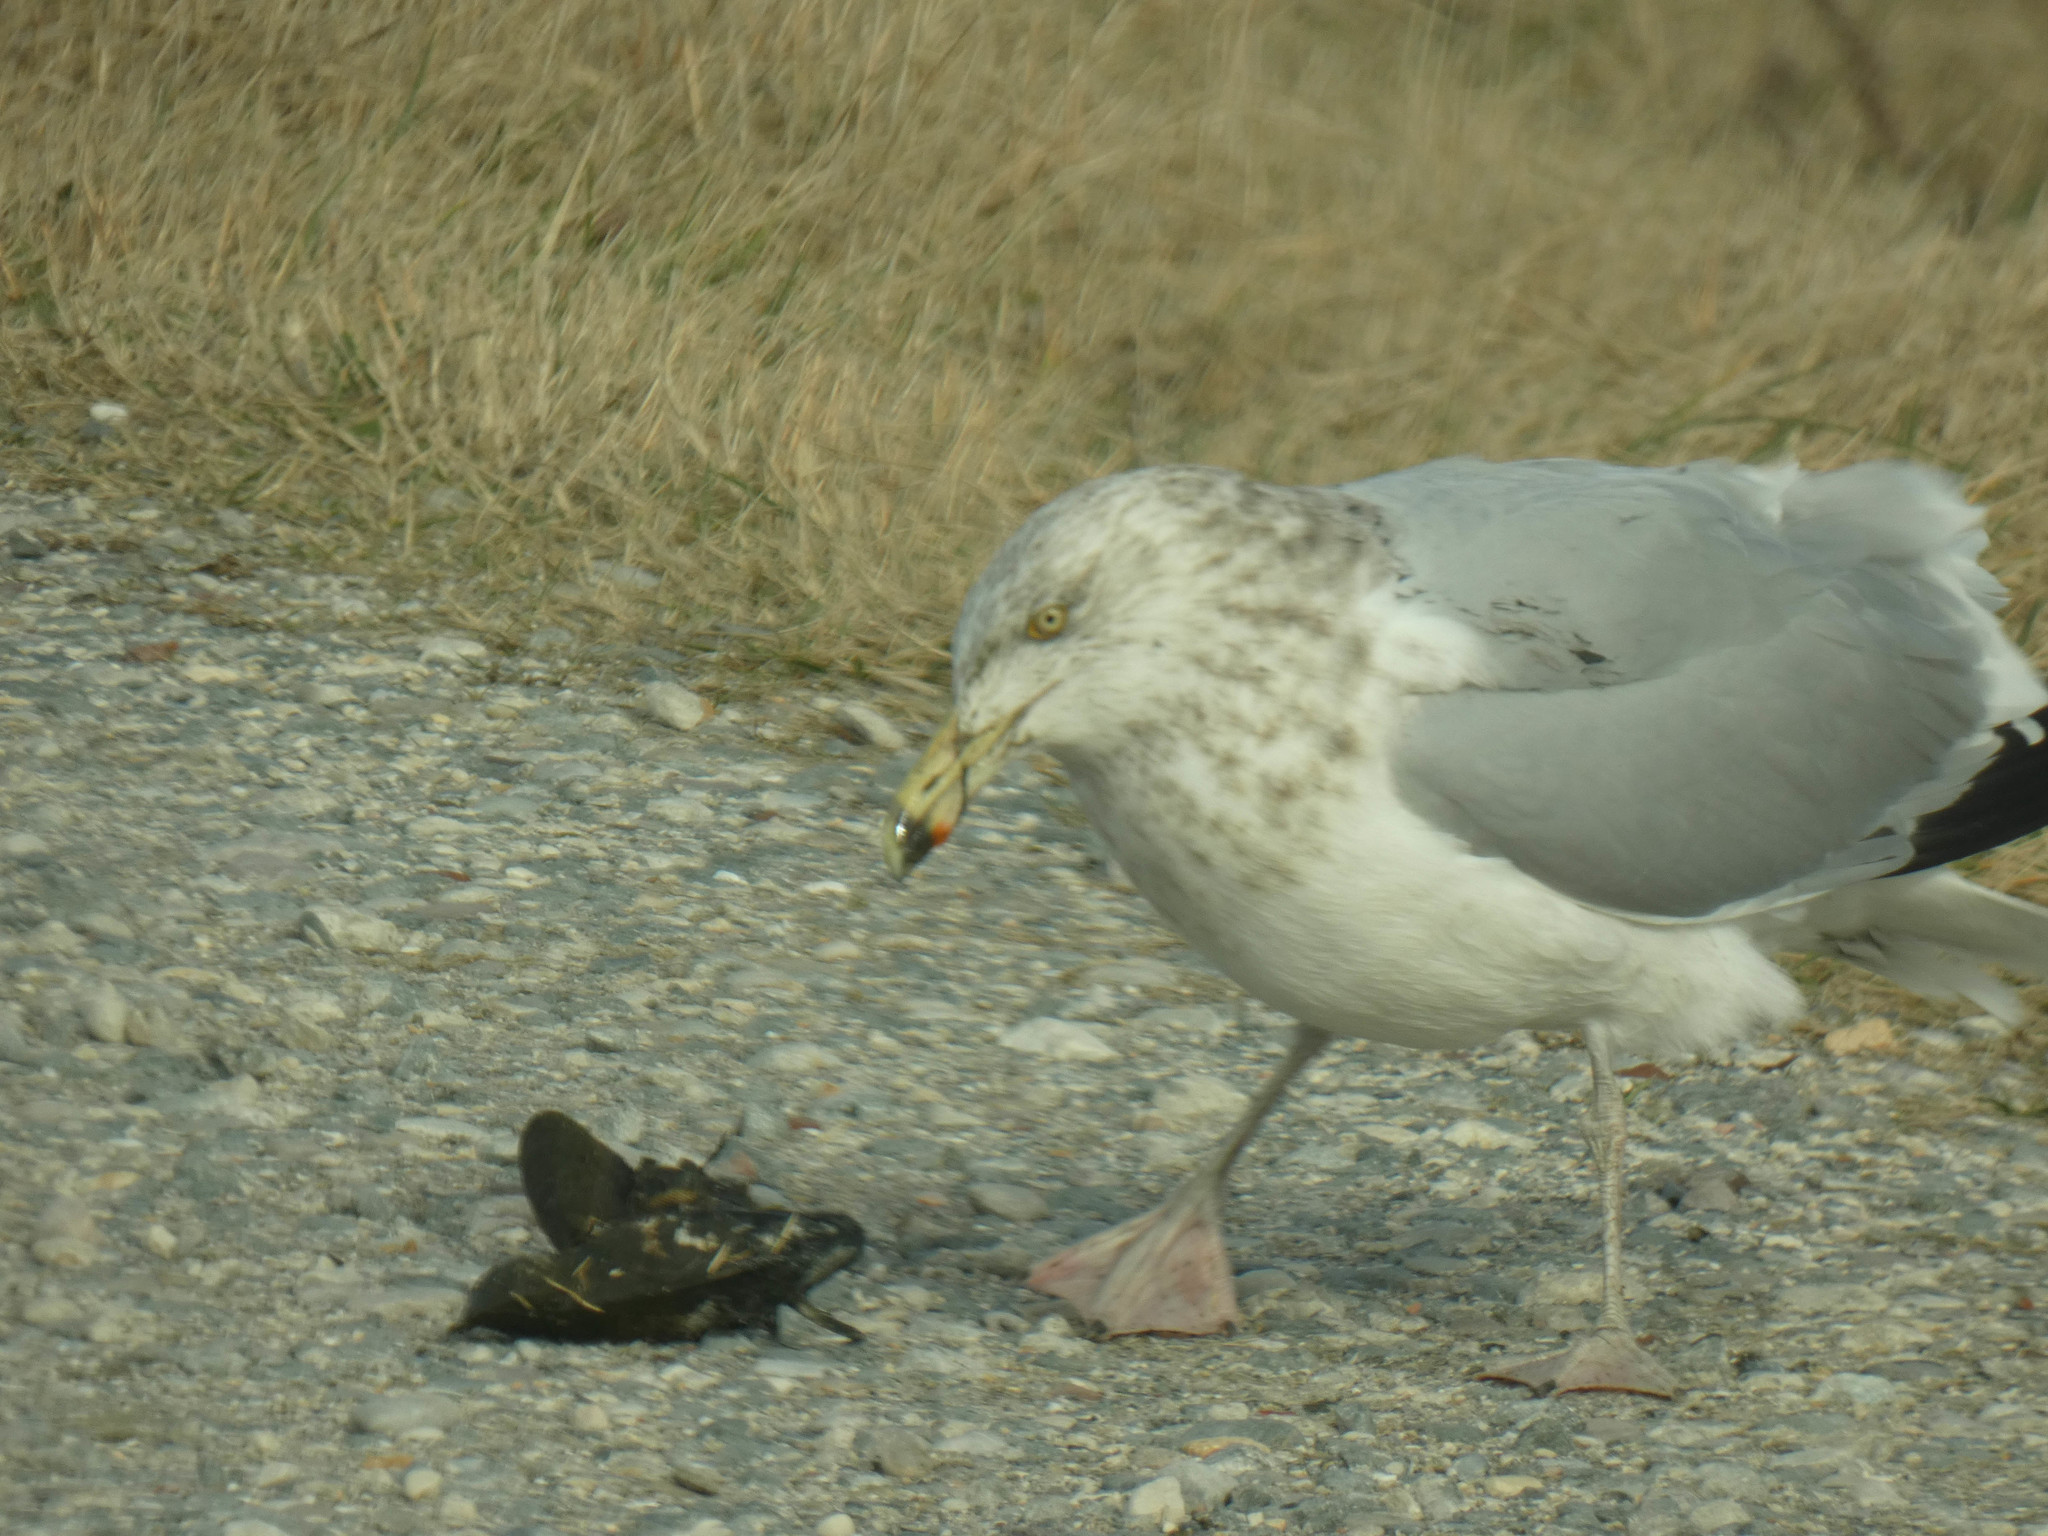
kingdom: Animalia
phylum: Chordata
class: Aves
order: Charadriiformes
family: Laridae
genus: Larus
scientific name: Larus argentatus
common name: Herring gull
